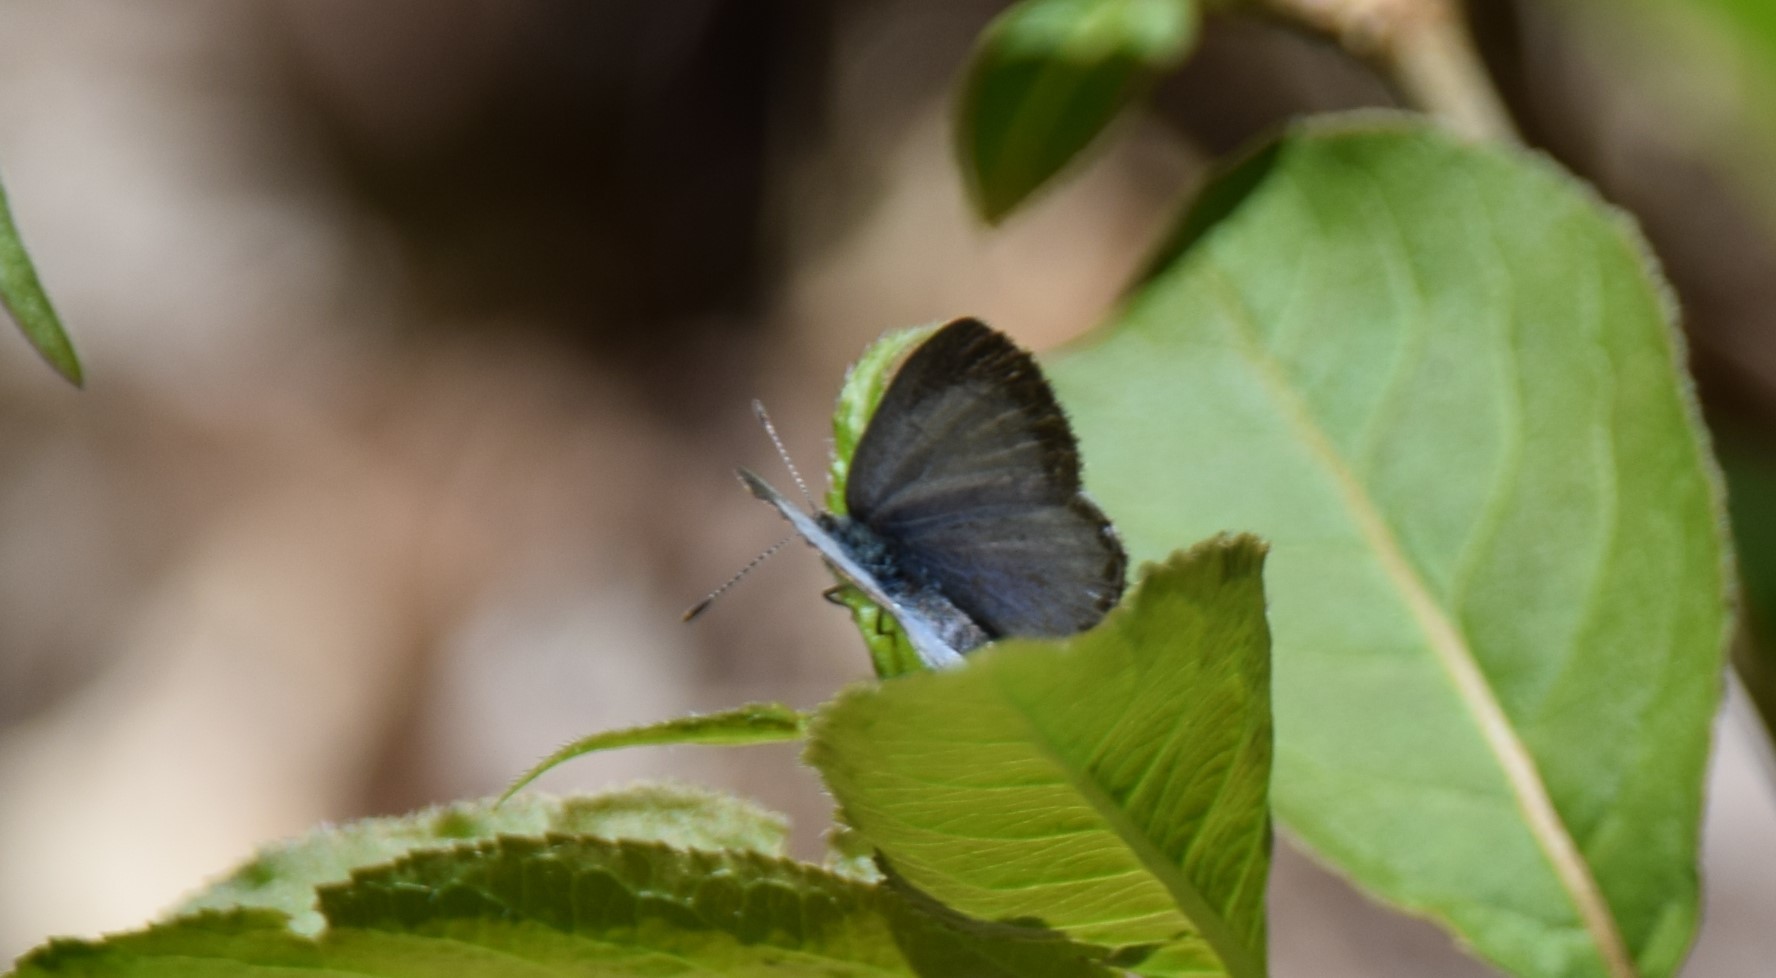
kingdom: Animalia
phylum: Arthropoda
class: Insecta
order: Lepidoptera
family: Lycaenidae
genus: Celastrina
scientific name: Celastrina lucia
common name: Lucia azure
